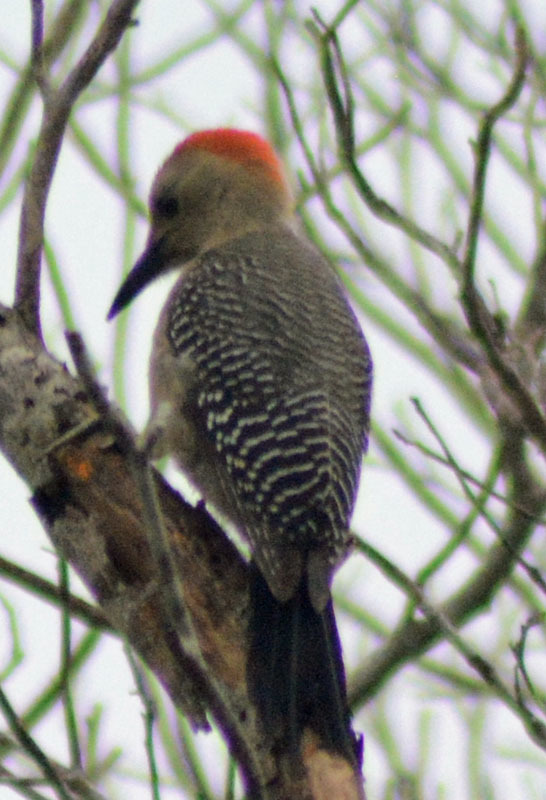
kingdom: Animalia
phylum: Chordata
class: Aves
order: Piciformes
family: Picidae
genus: Melanerpes
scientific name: Melanerpes aurifrons
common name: Golden-fronted woodpecker
